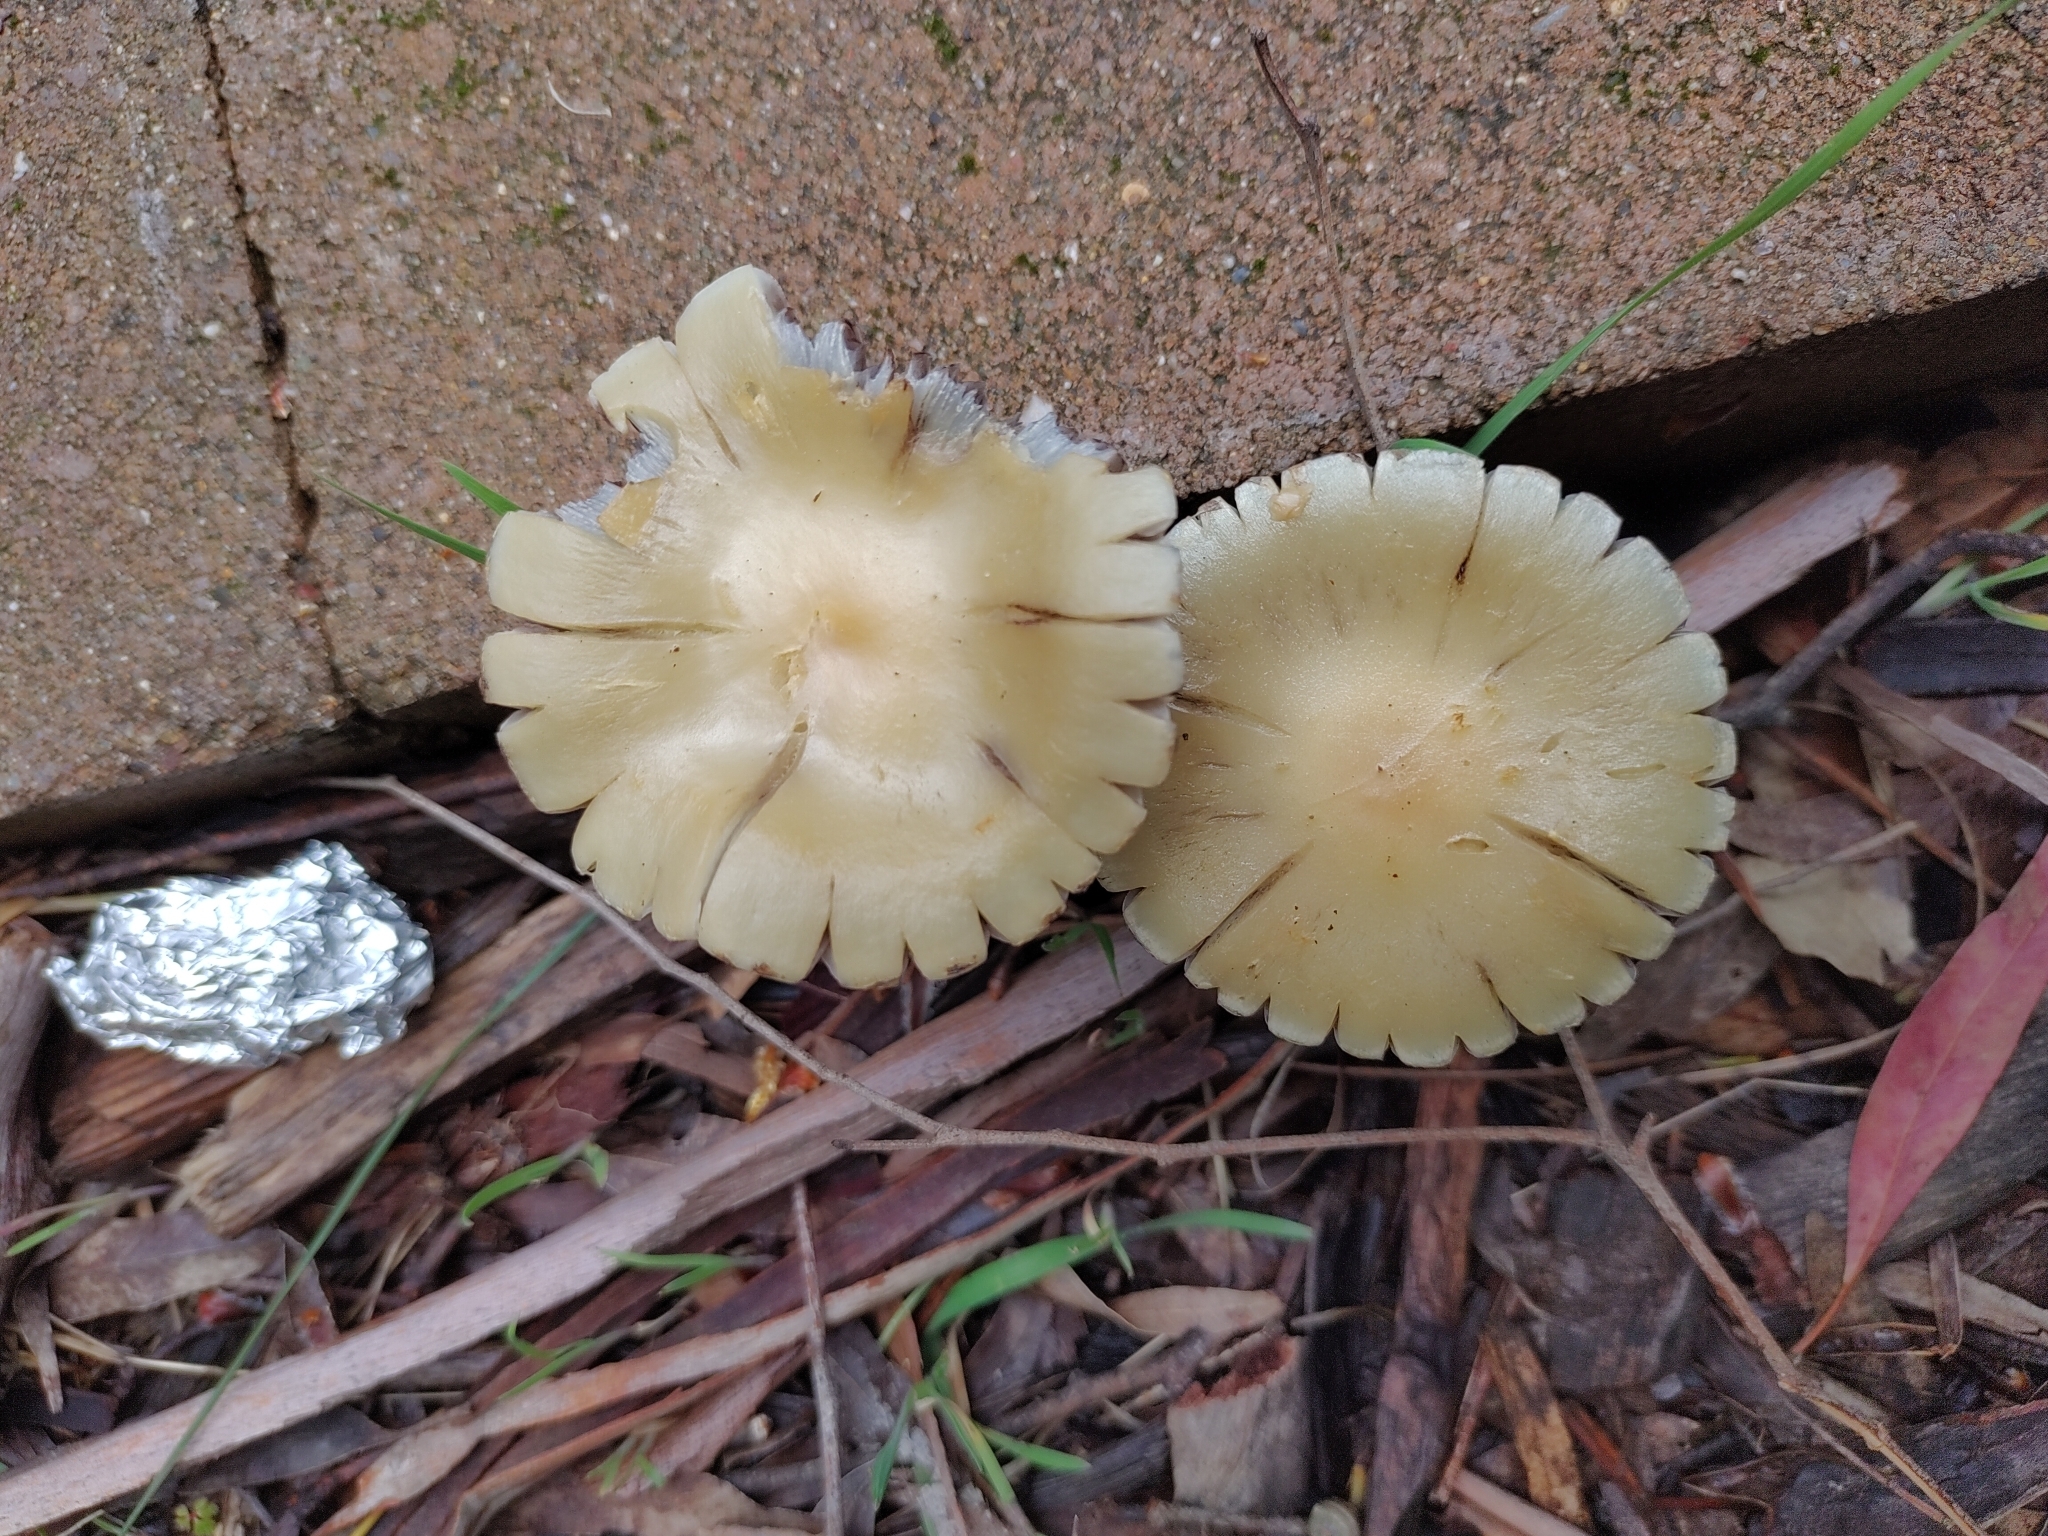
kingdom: Fungi
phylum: Basidiomycota
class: Agaricomycetes
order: Agaricales
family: Strophariaceae
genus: Leratiomyces
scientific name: Leratiomyces percevalii
